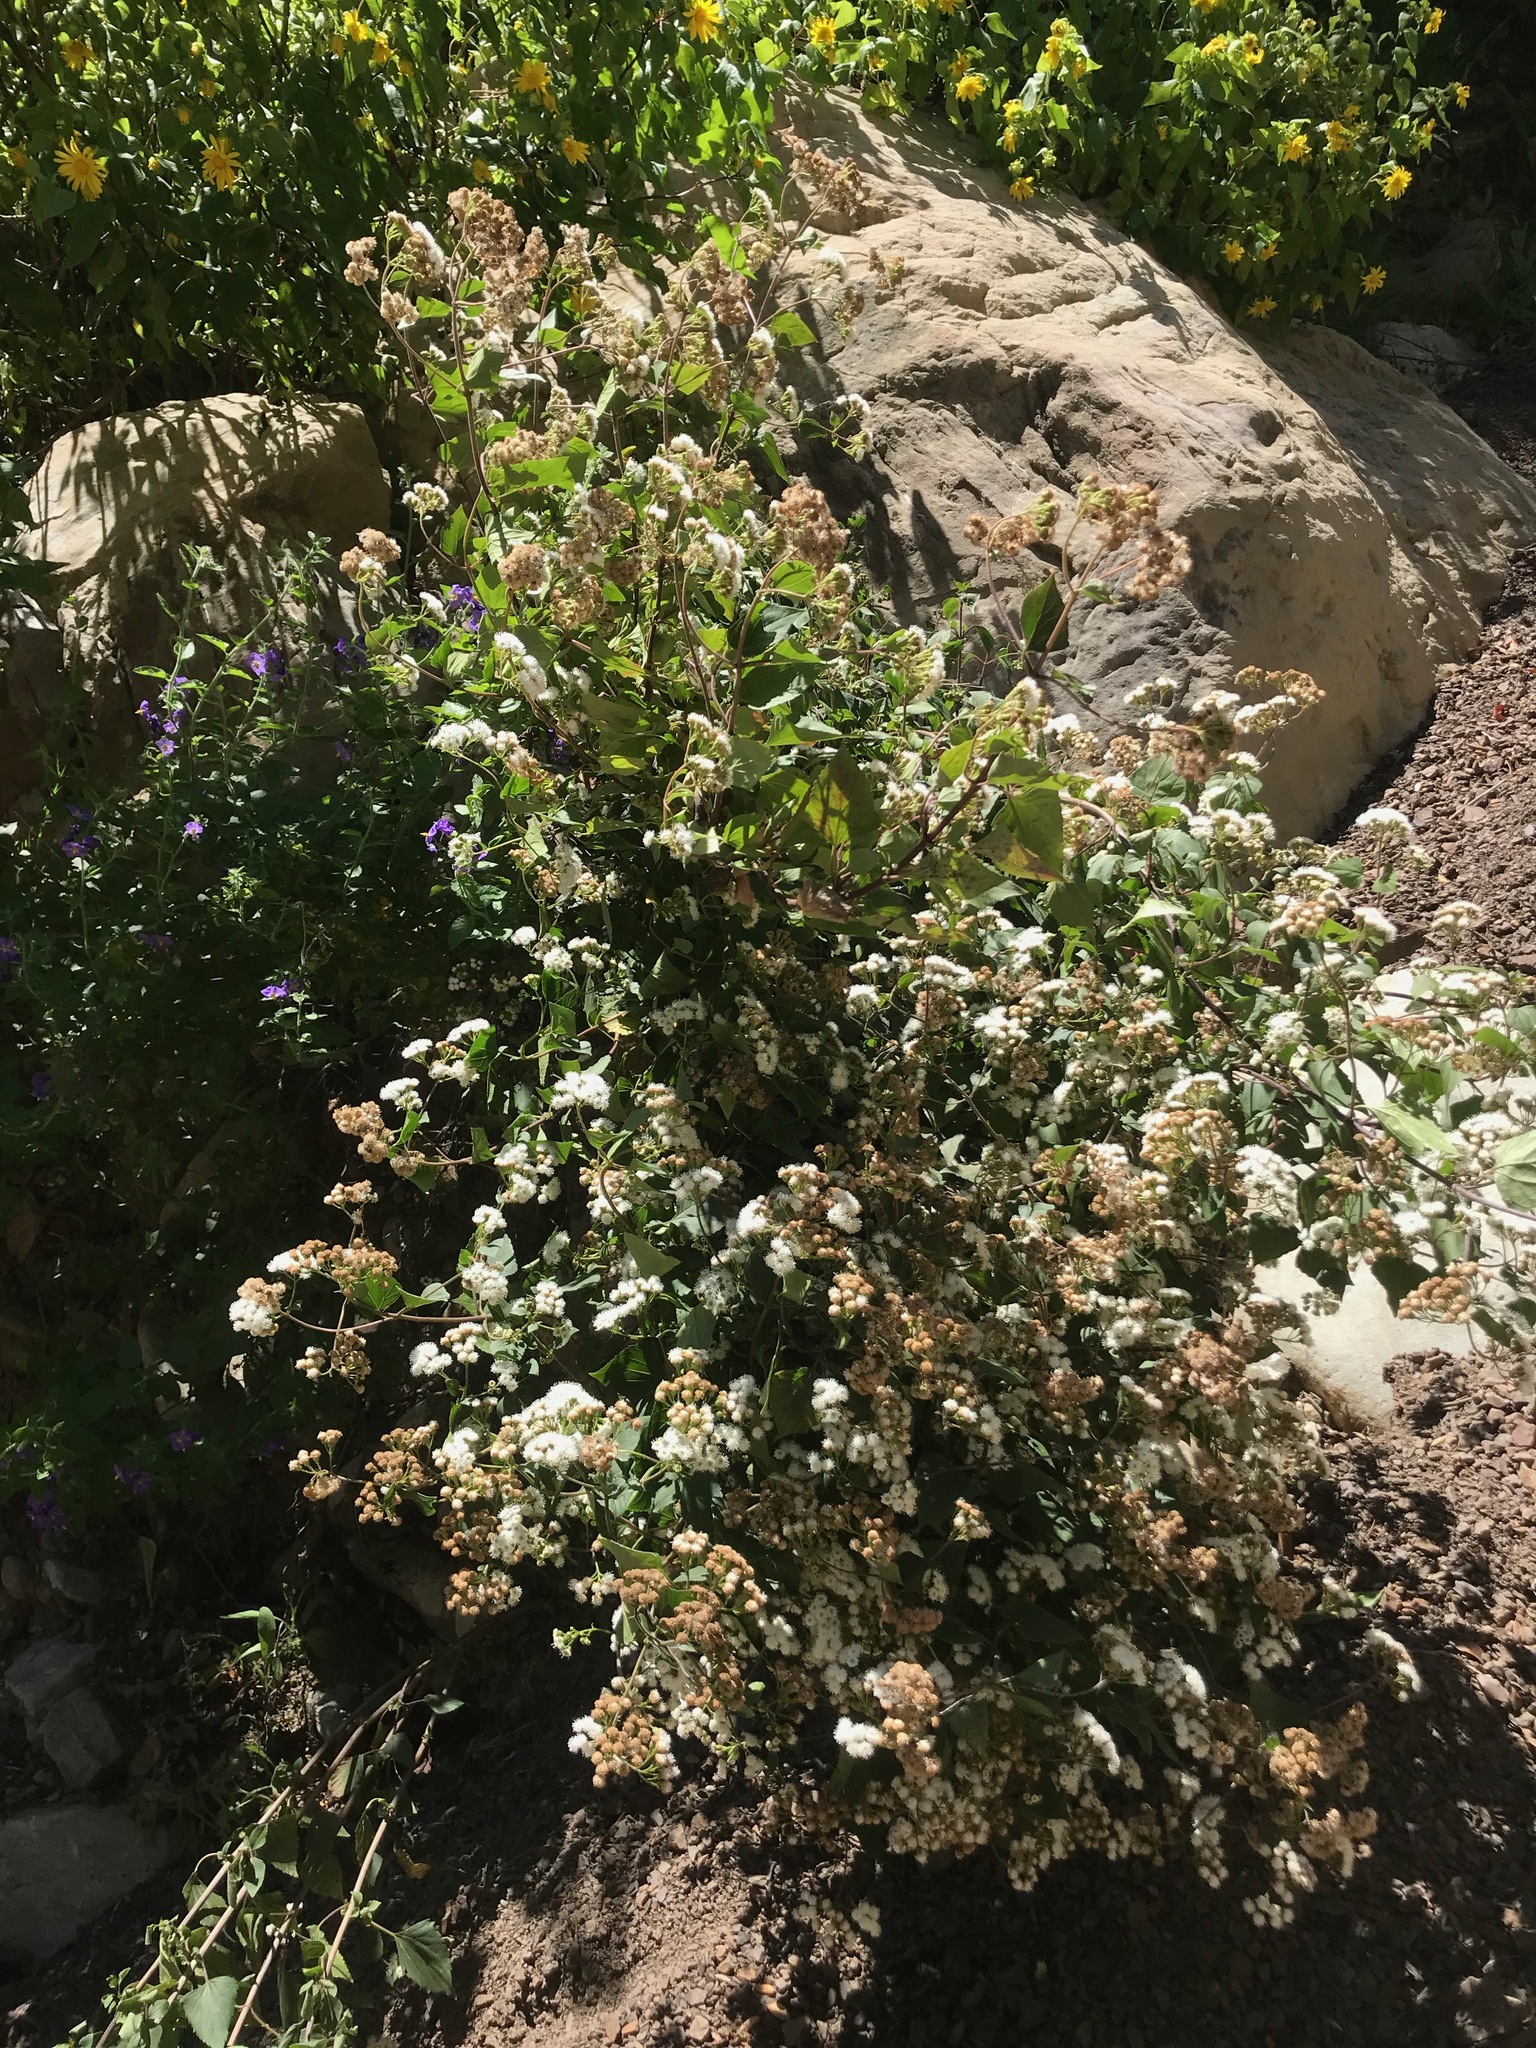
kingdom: Plantae
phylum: Tracheophyta
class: Magnoliopsida
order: Asterales
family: Asteraceae
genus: Ageratina
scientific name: Ageratina adenophora
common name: Sticky snakeroot
